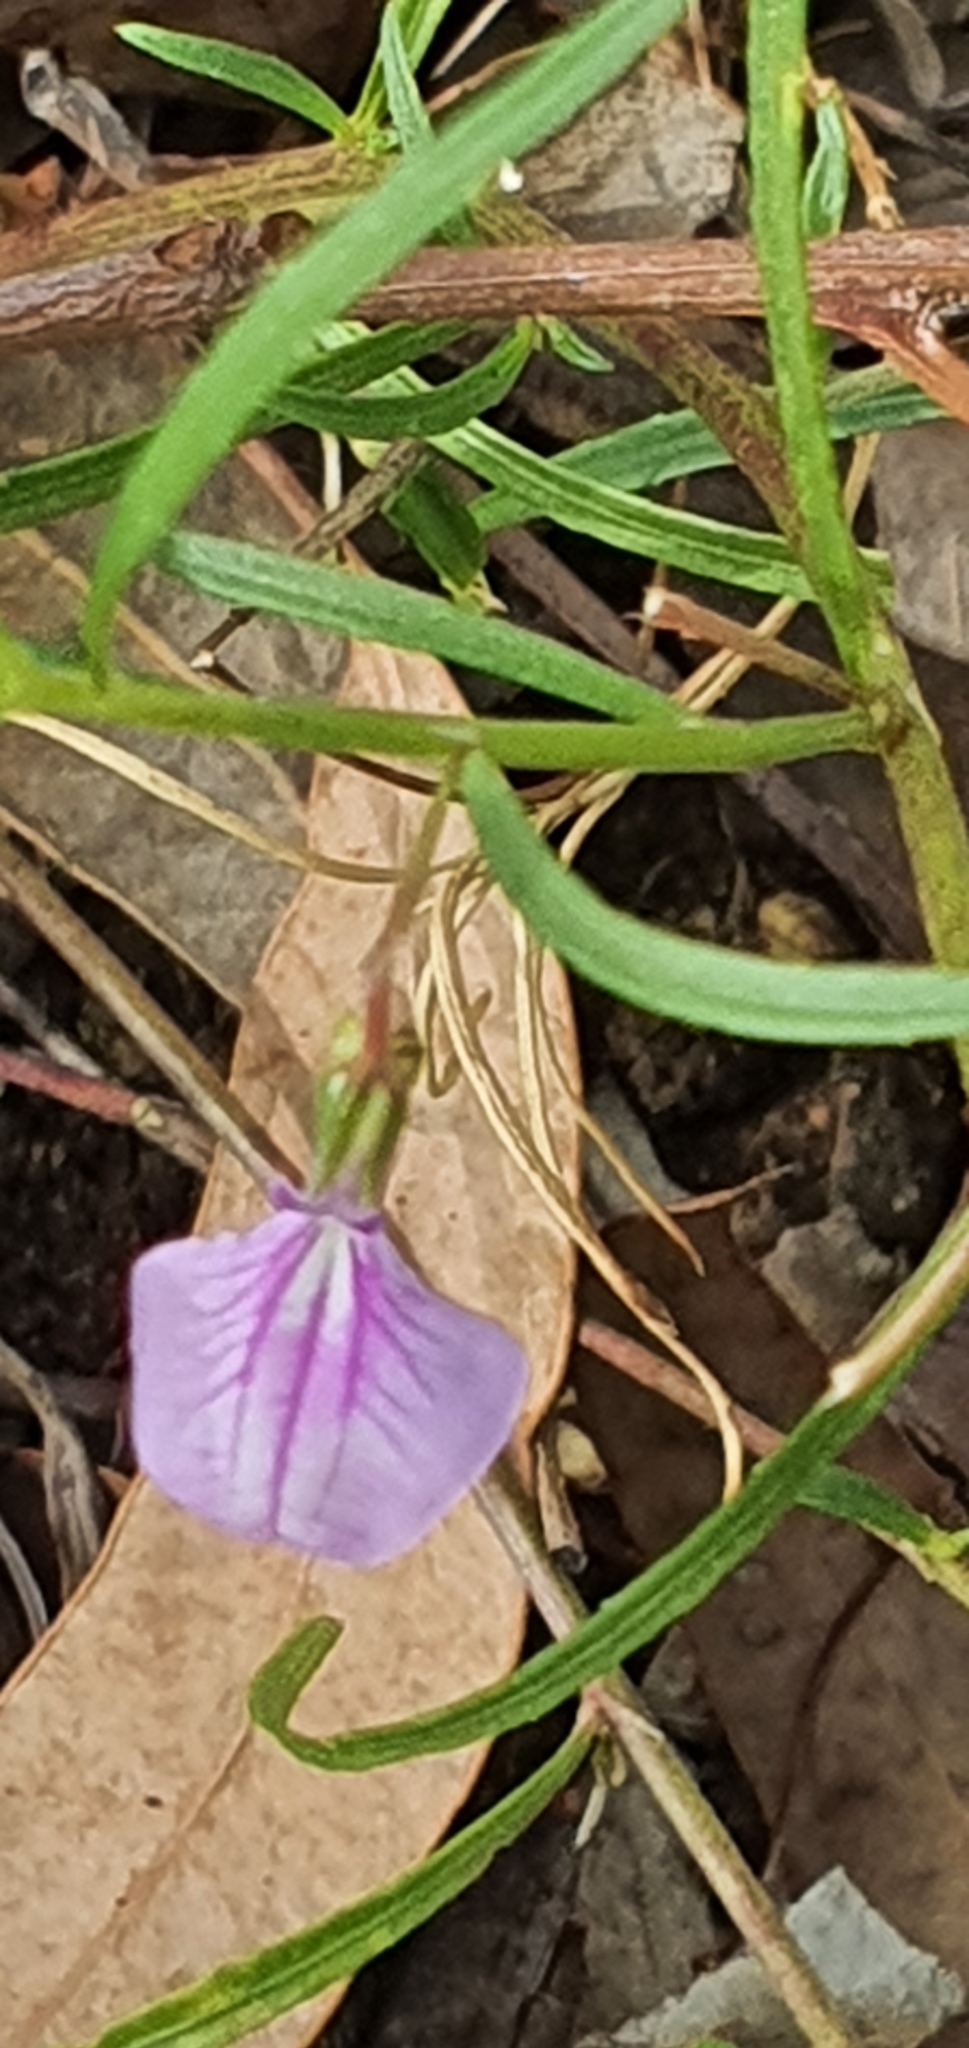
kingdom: Plantae
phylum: Tracheophyta
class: Magnoliopsida
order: Malpighiales
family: Violaceae
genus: Pigea
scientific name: Pigea enneasperma
